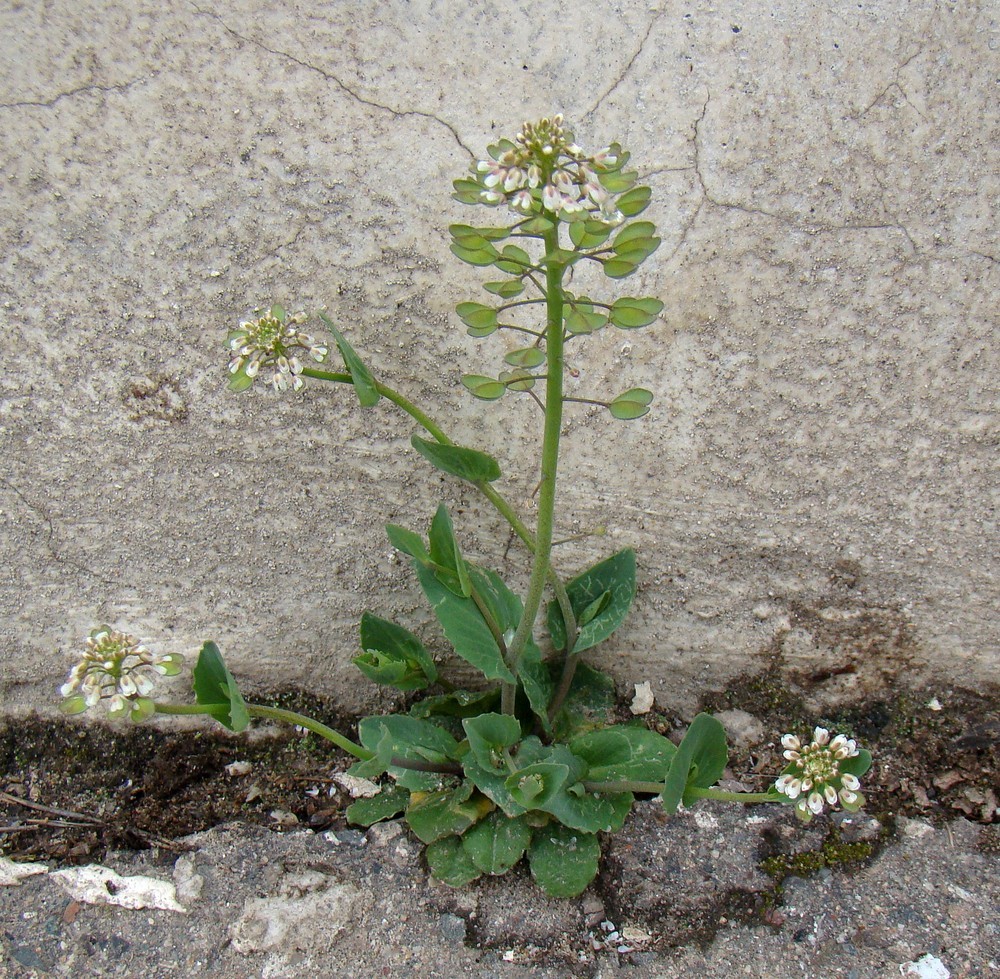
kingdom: Plantae
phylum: Tracheophyta
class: Magnoliopsida
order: Brassicales
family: Brassicaceae
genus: Noccaea
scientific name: Noccaea perfoliata
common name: Perfoliate pennycress
